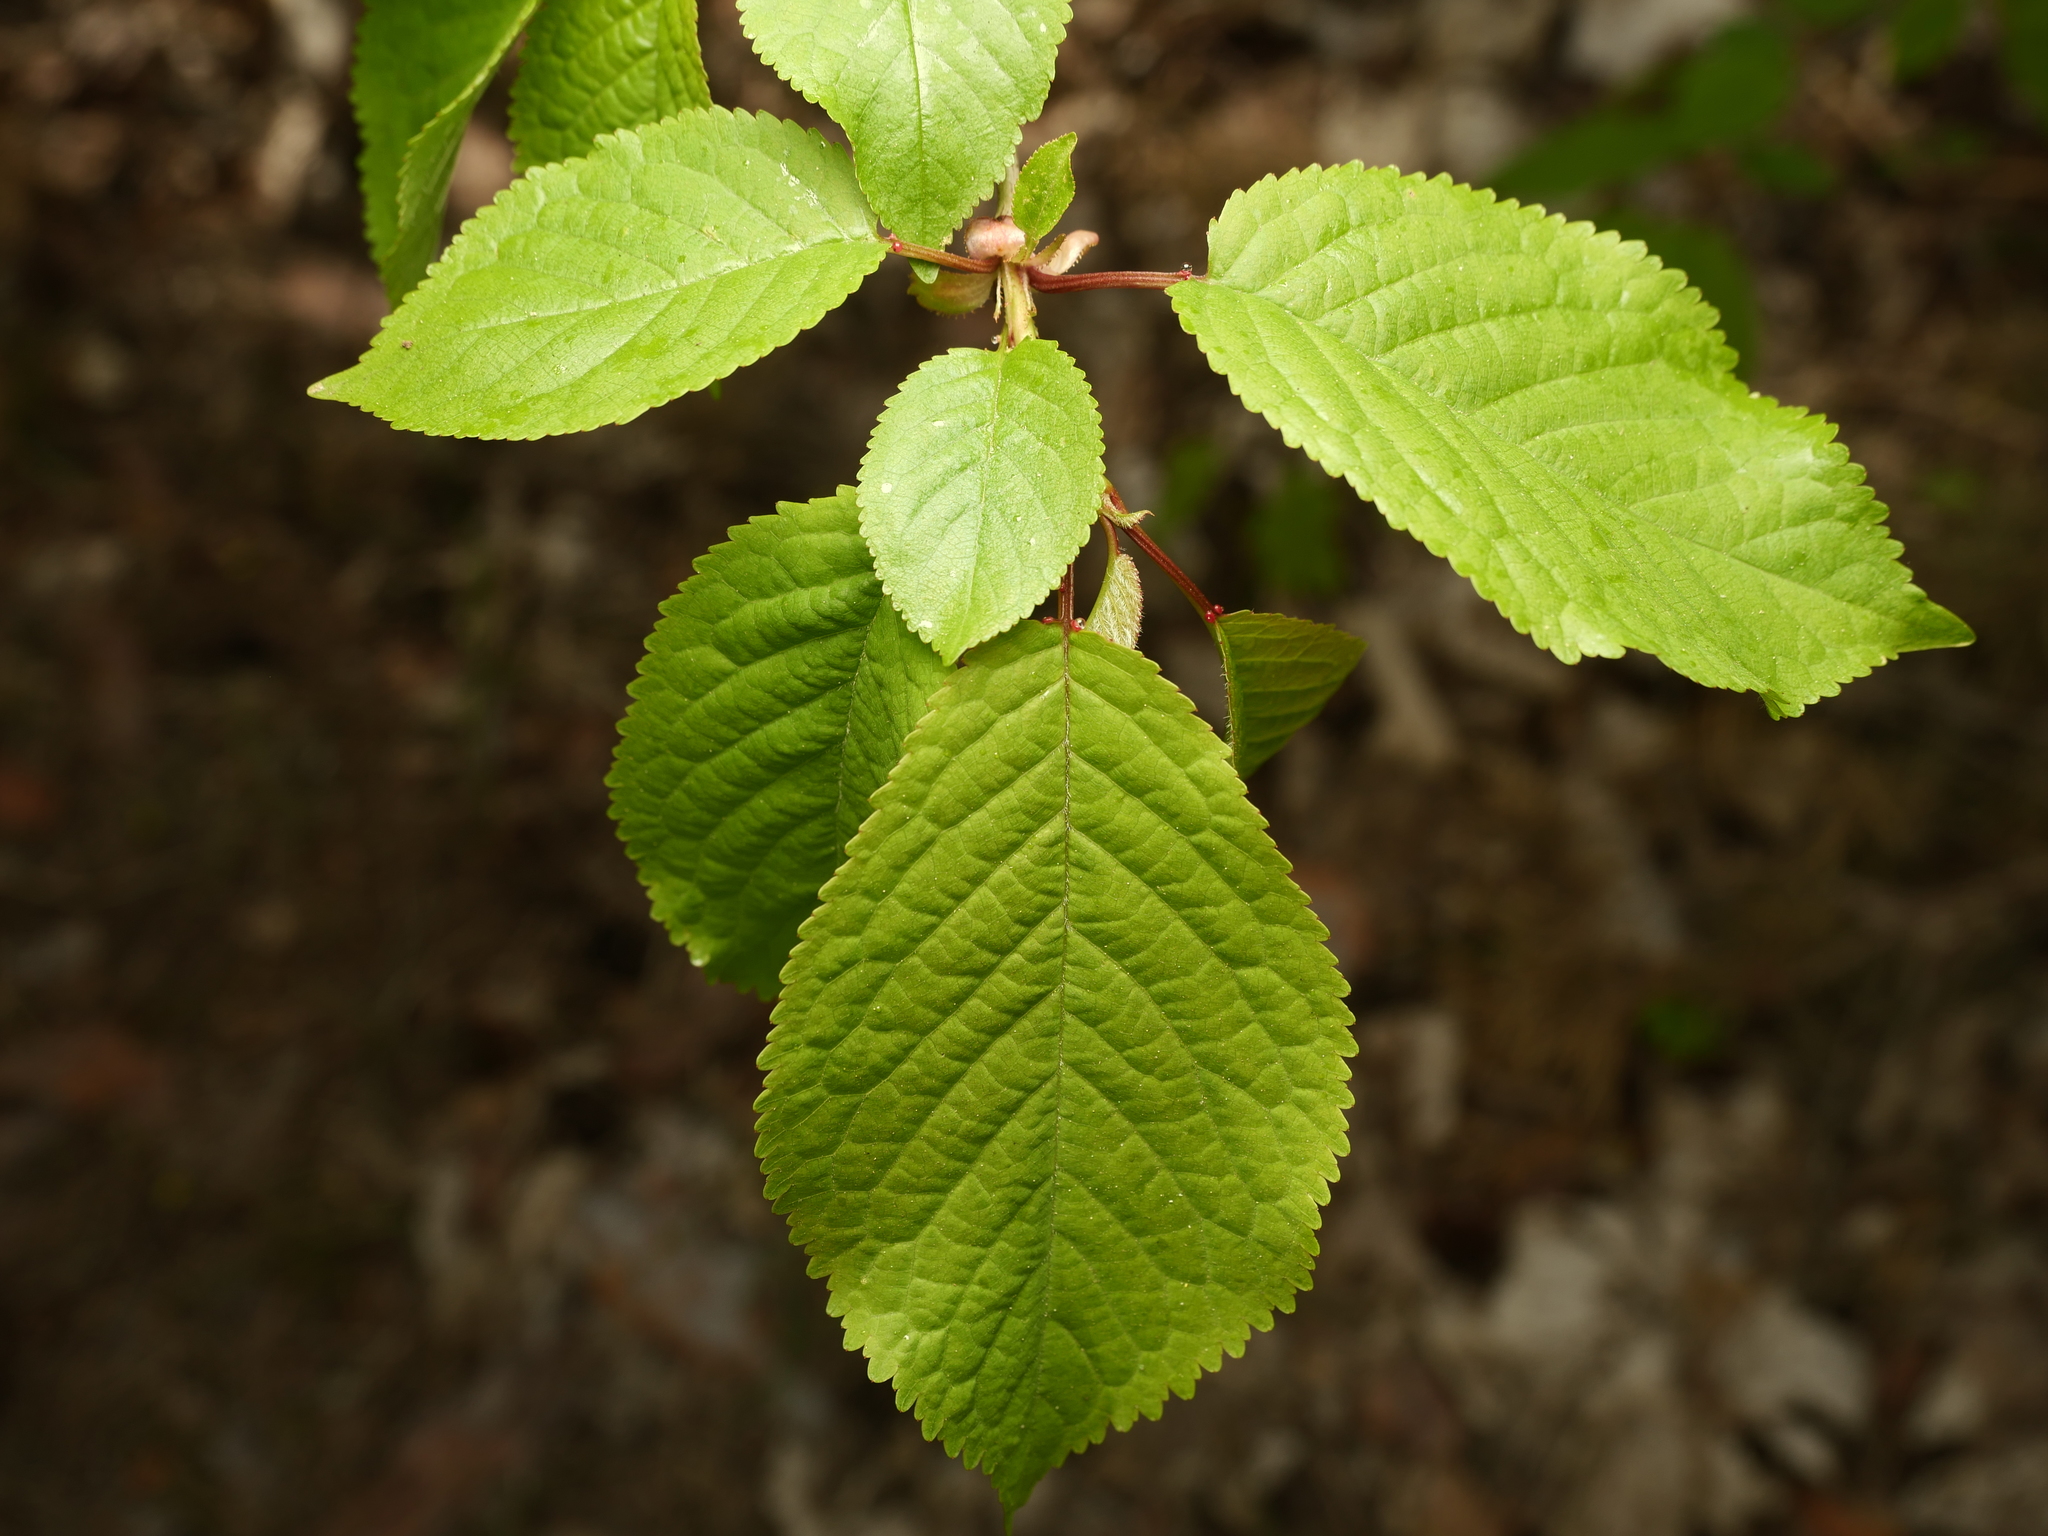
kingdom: Plantae
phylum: Tracheophyta
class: Magnoliopsida
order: Rosales
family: Rosaceae
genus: Prunus
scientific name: Prunus avium
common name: Sweet cherry
